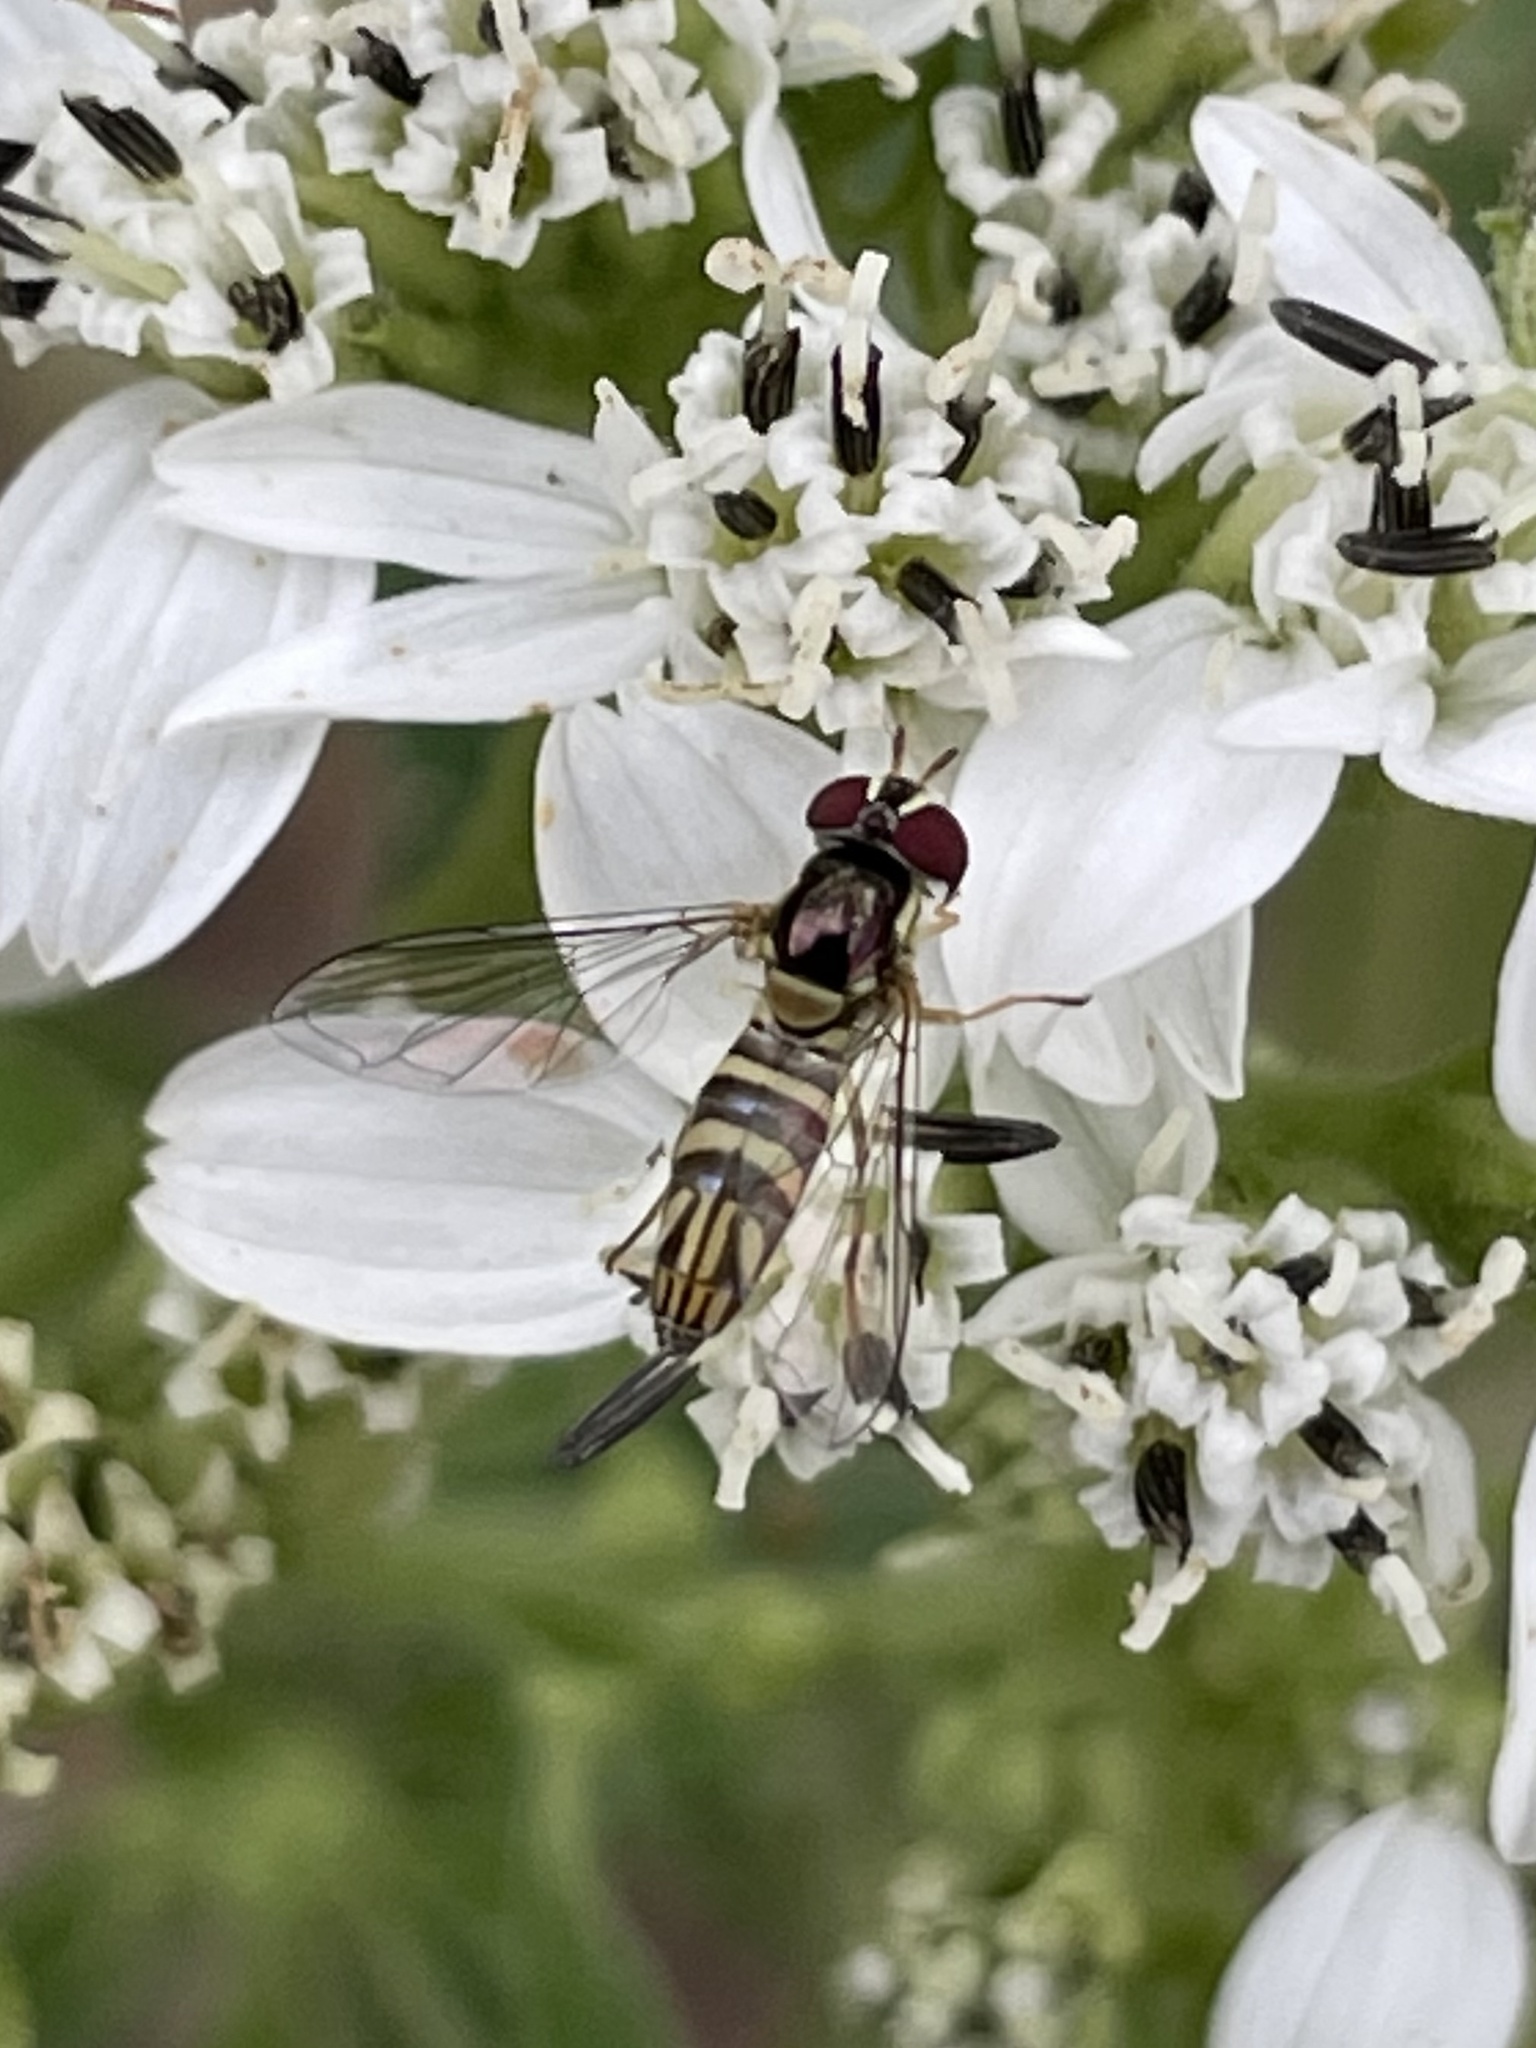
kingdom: Animalia
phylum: Arthropoda
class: Insecta
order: Diptera
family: Syrphidae
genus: Allograpta
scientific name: Allograpta obliqua
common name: Common oblique syrphid
